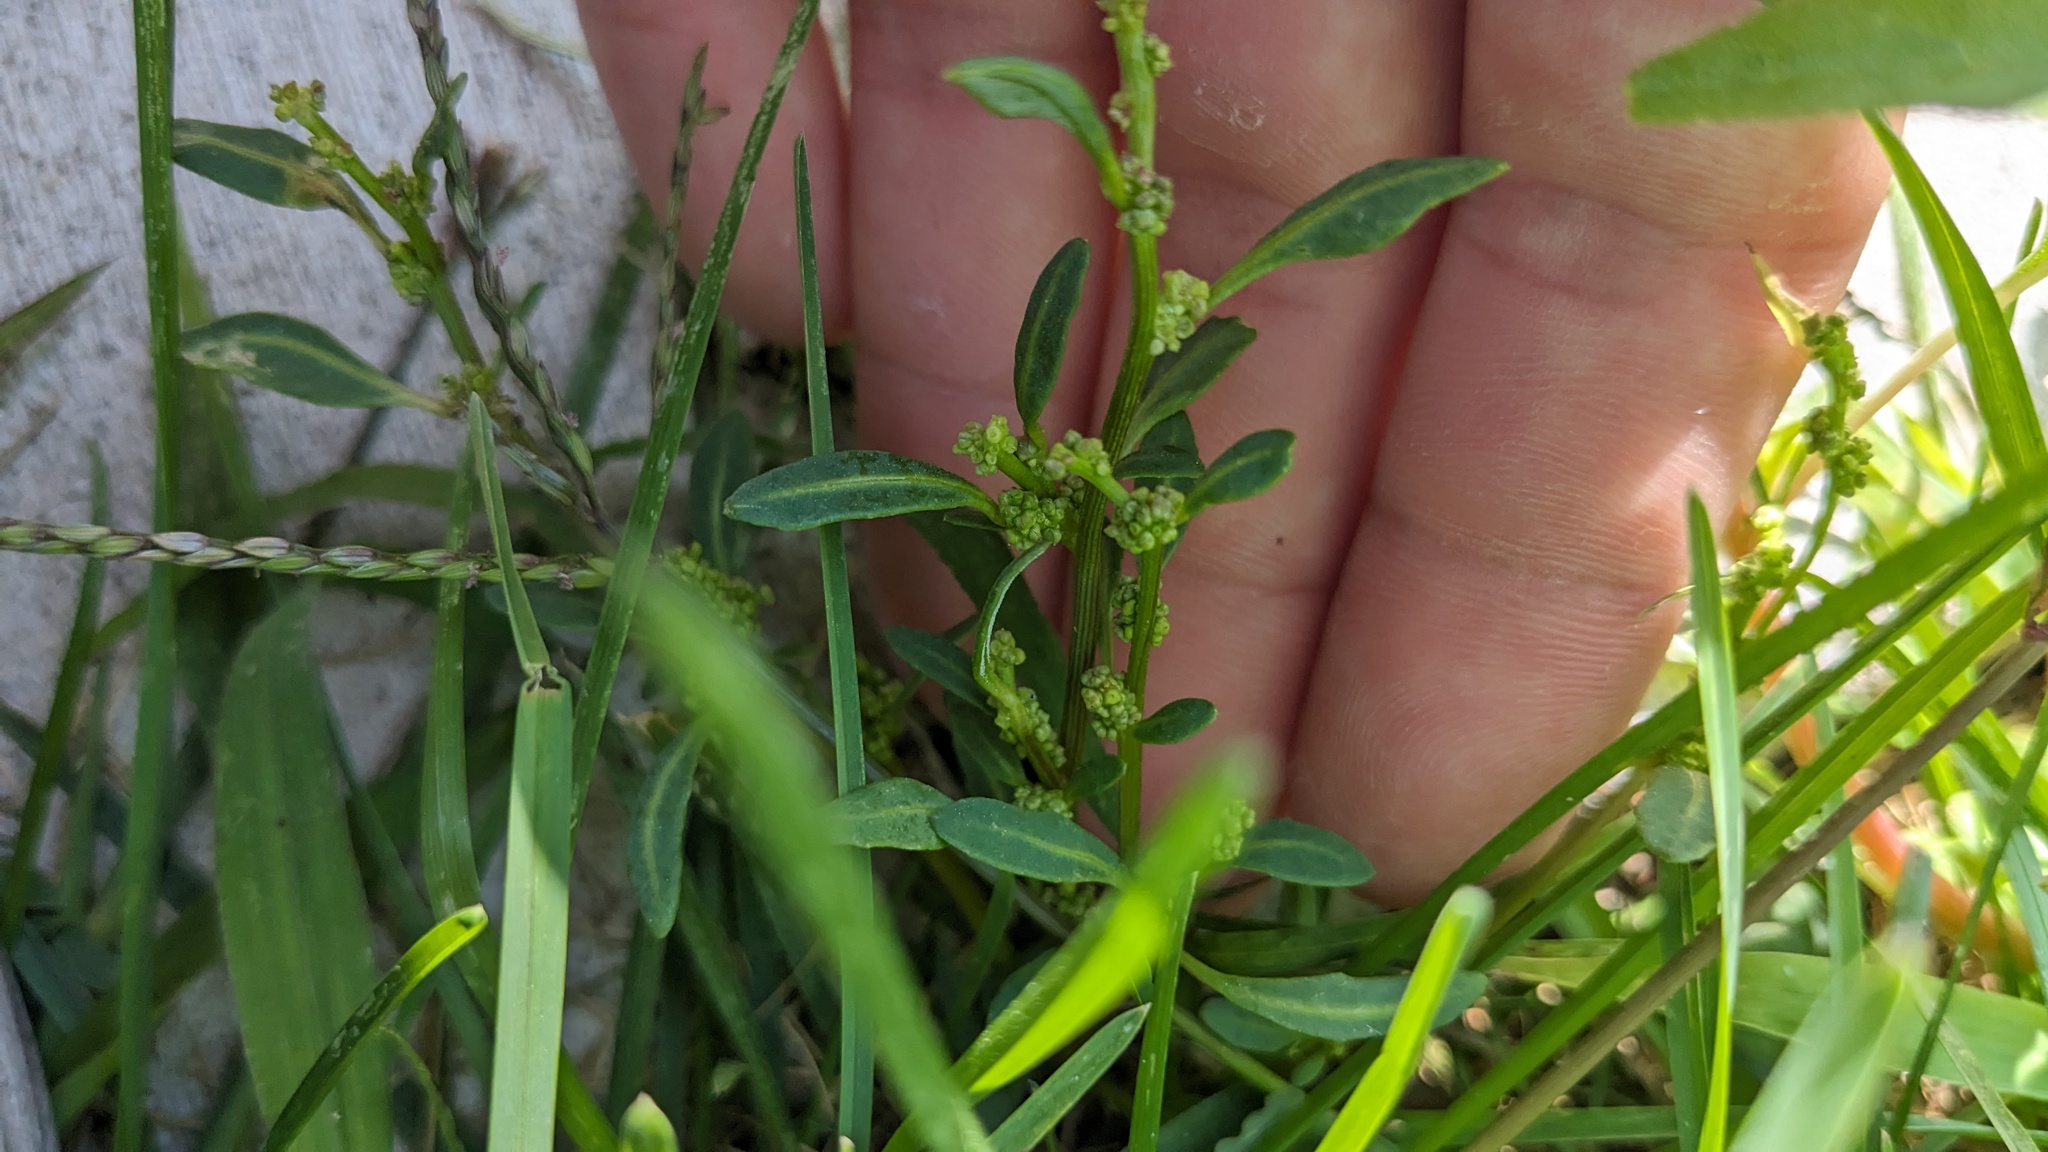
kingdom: Plantae
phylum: Tracheophyta
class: Magnoliopsida
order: Caryophyllales
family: Amaranthaceae
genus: Oxybasis
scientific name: Oxybasis glauca
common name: Glaucous goosefoot
